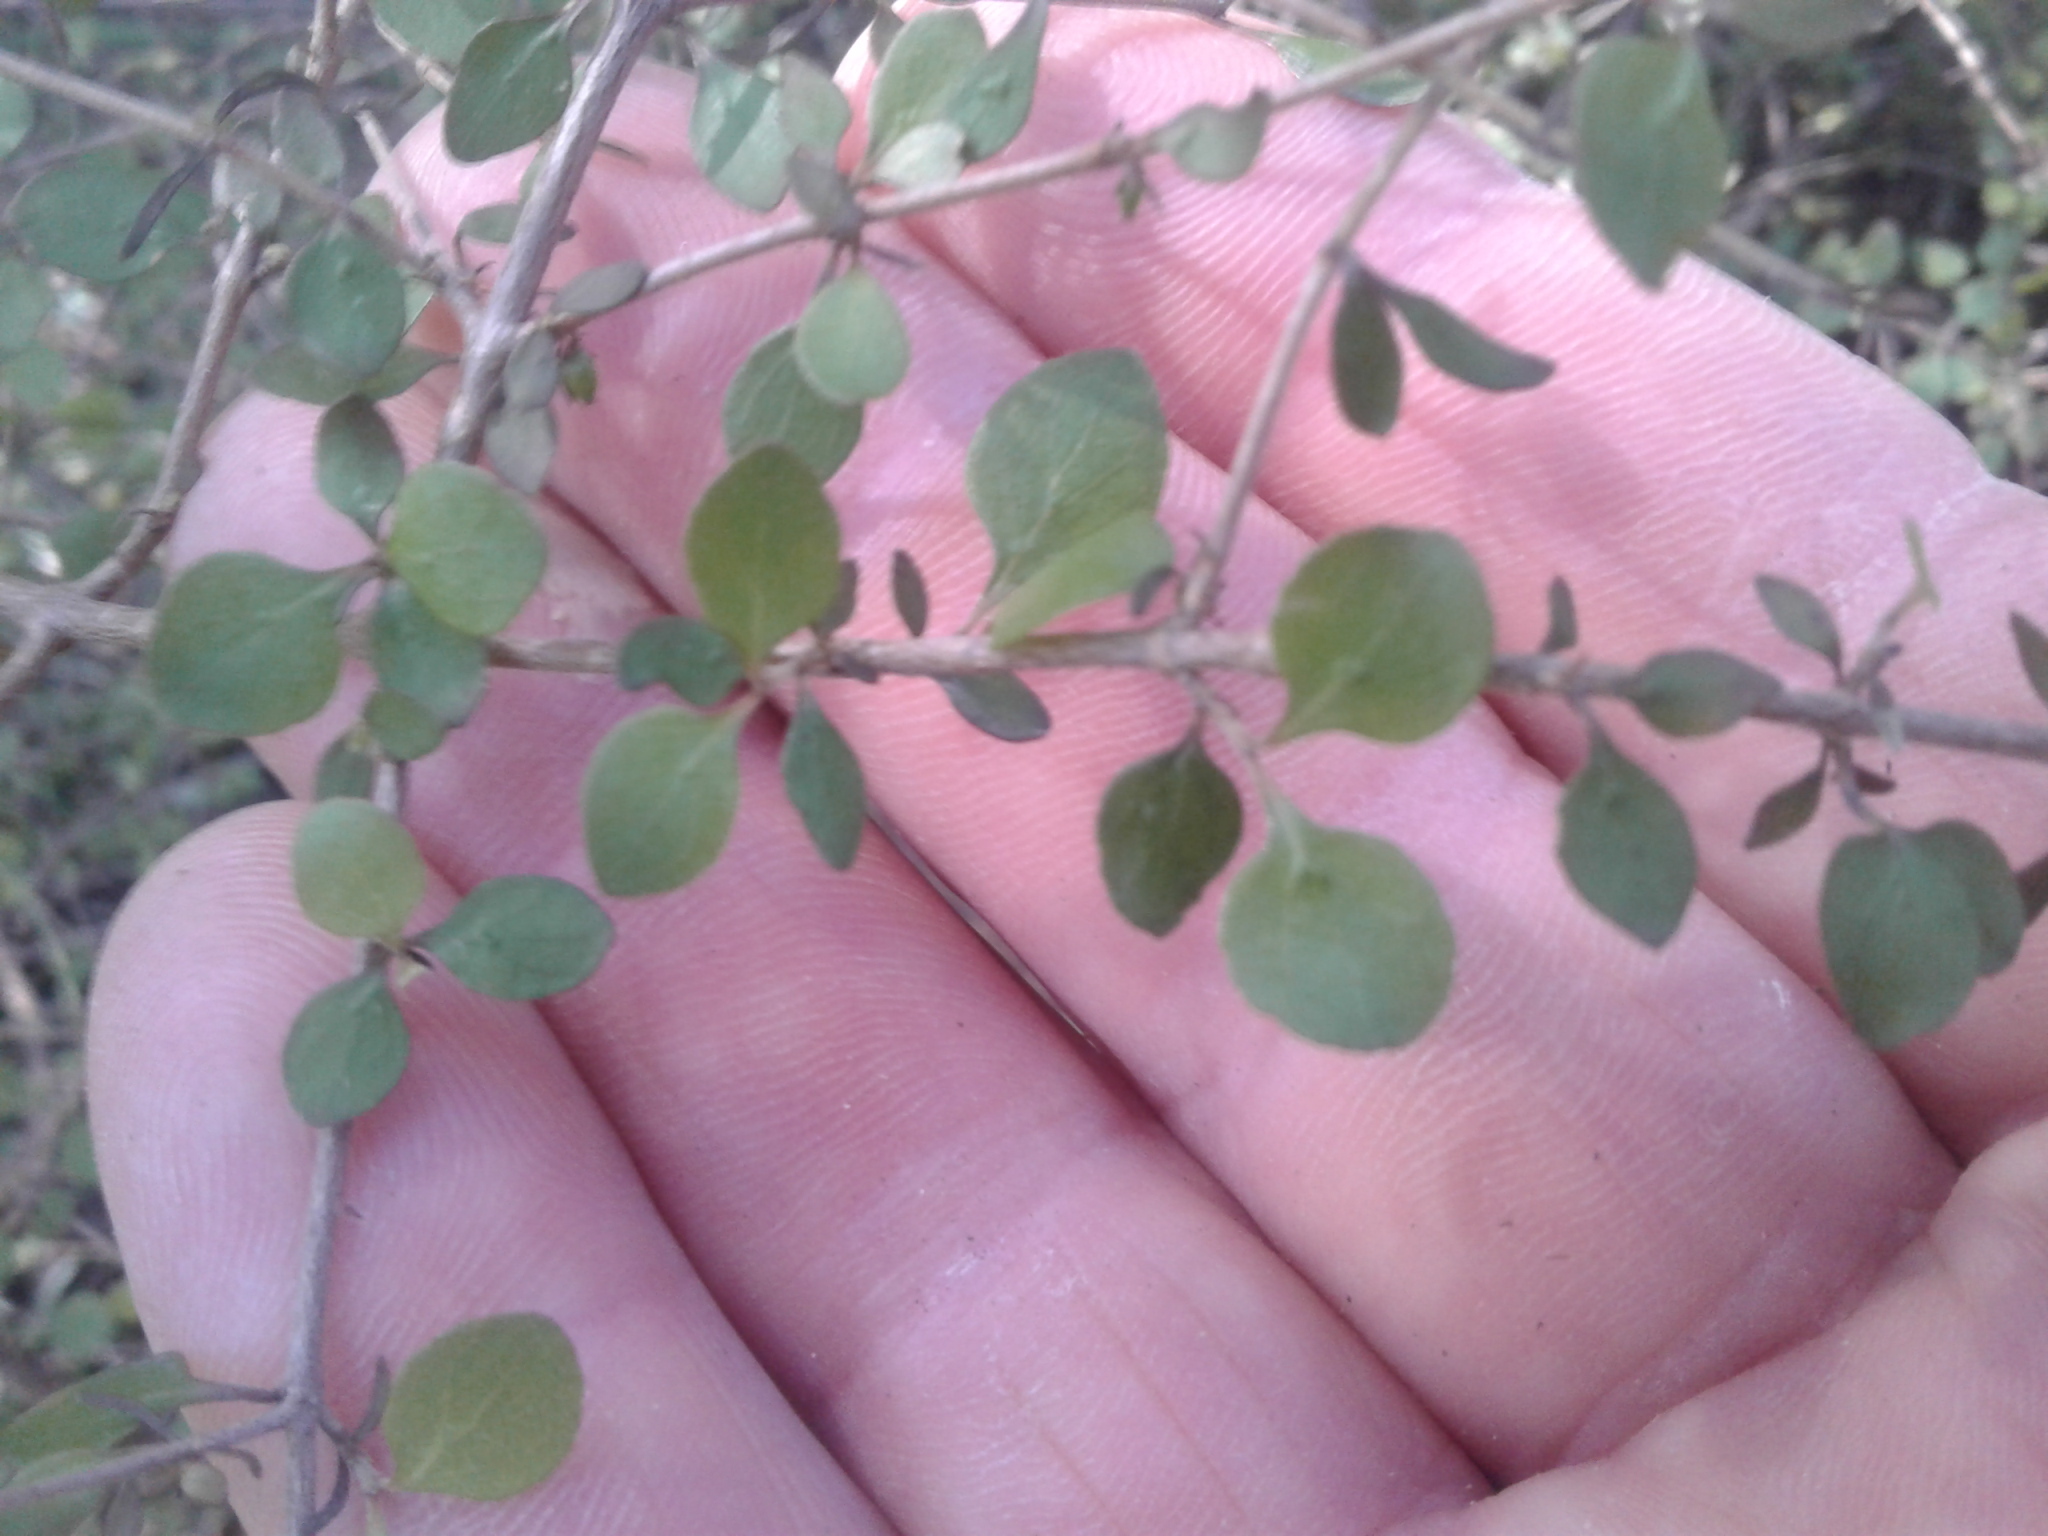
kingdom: Plantae
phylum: Tracheophyta
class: Magnoliopsida
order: Gentianales
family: Rubiaceae
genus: Coprosma
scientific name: Coprosma rhamnoides
